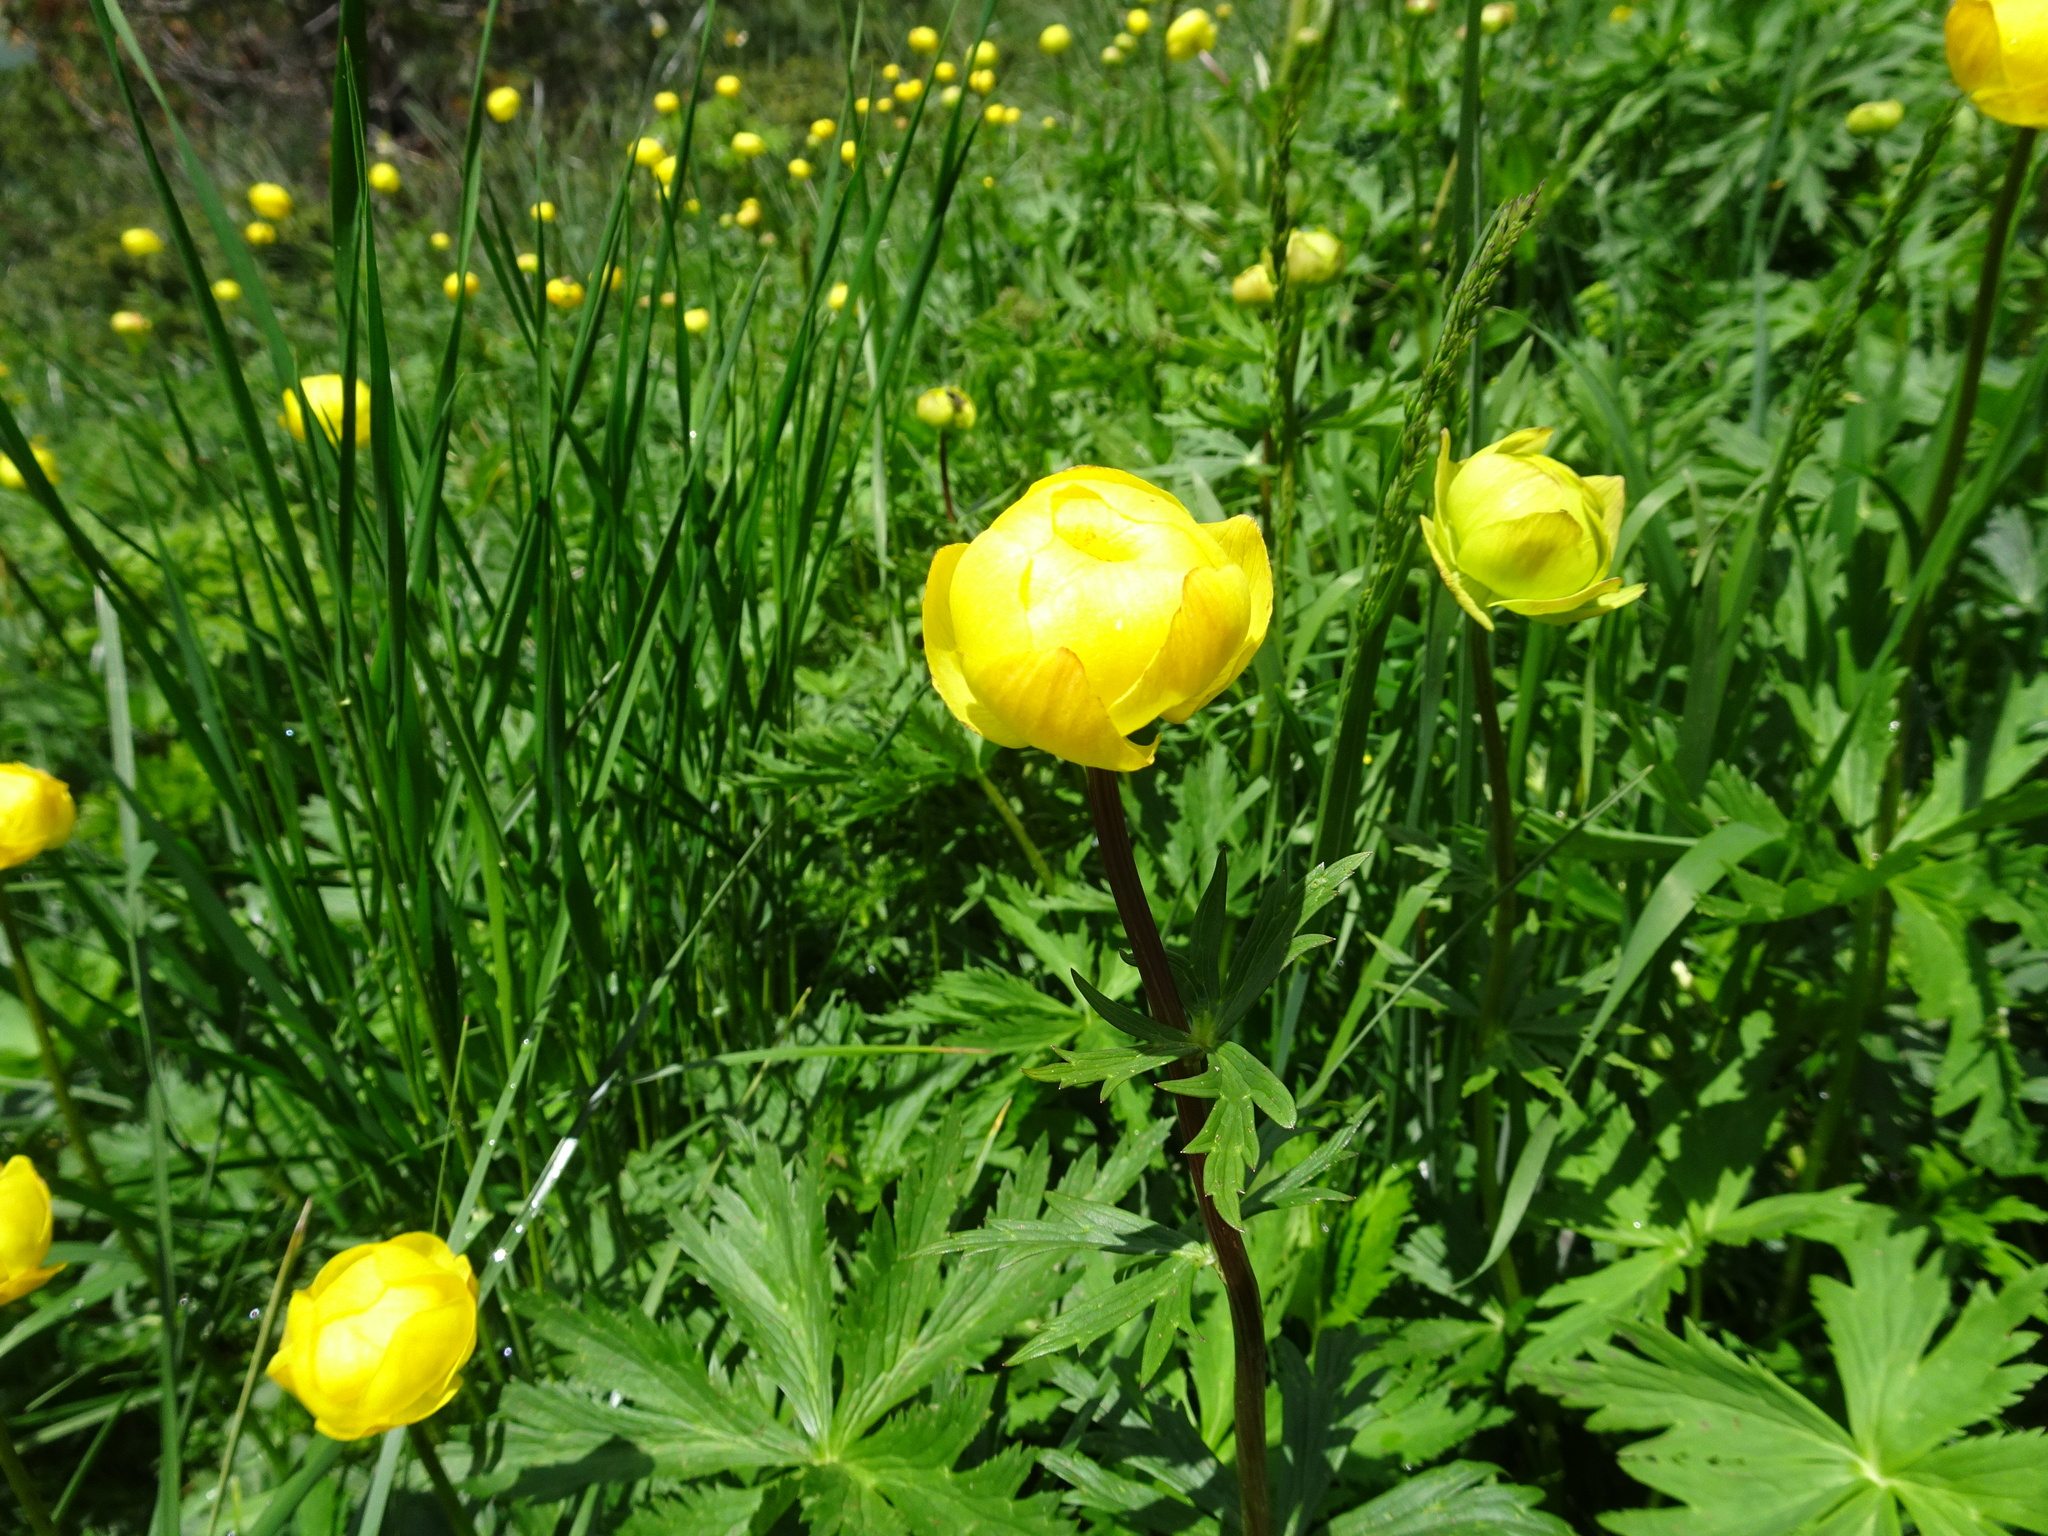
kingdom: Plantae
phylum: Tracheophyta
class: Magnoliopsida
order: Ranunculales
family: Ranunculaceae
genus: Trollius
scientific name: Trollius europaeus
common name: European globeflower
